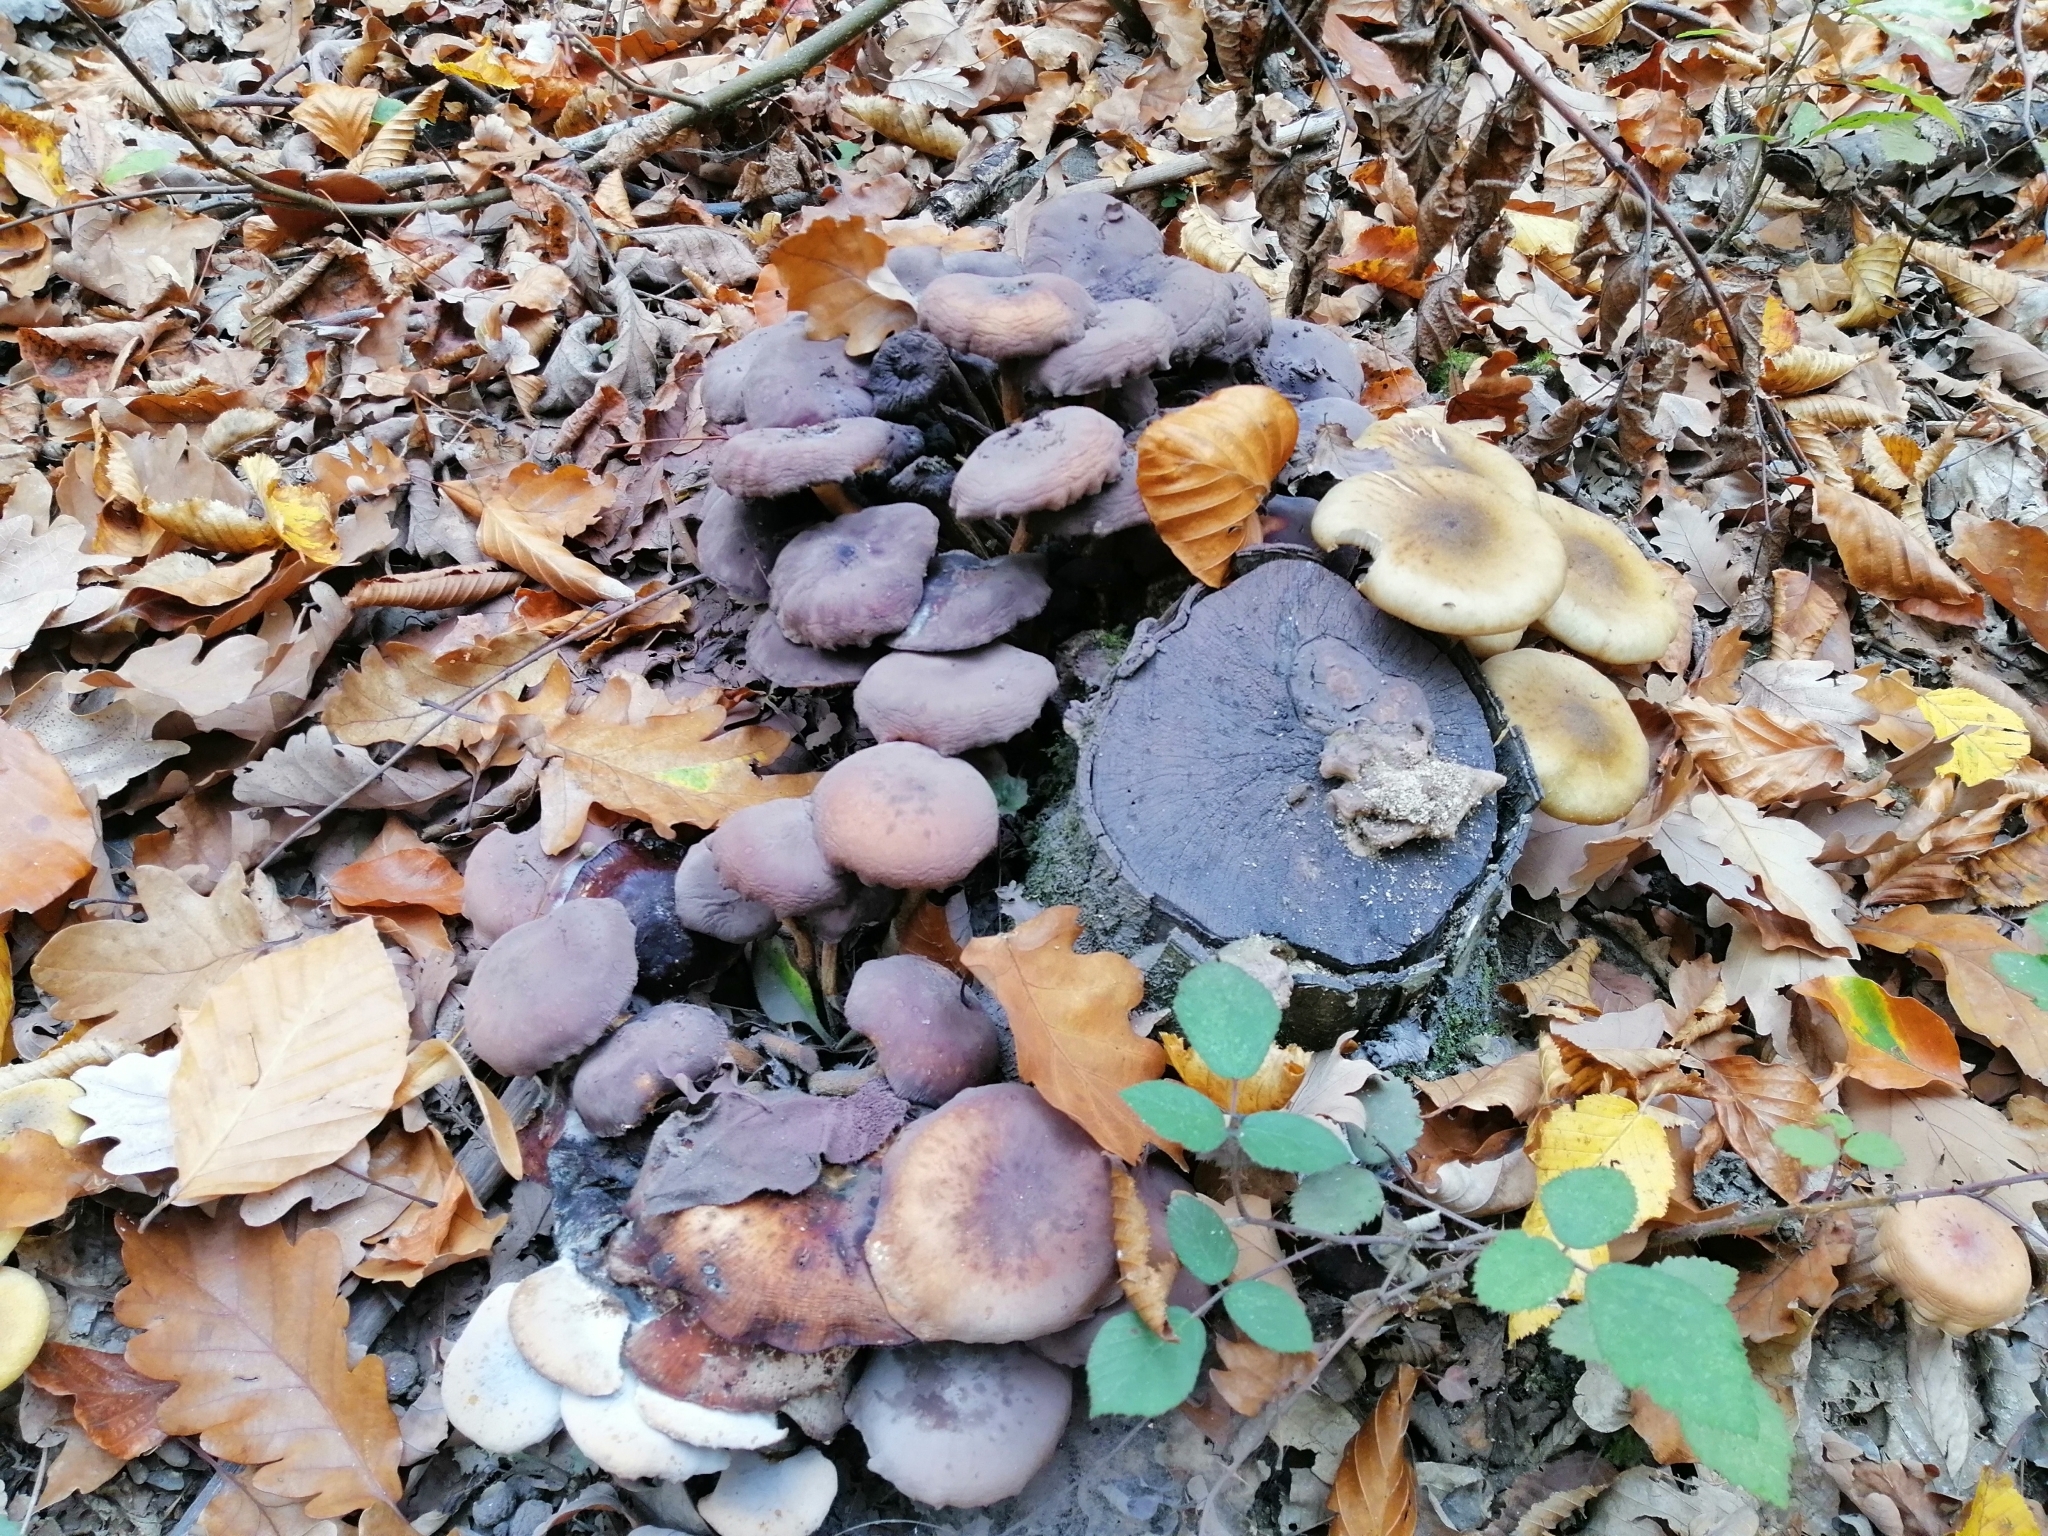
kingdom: Fungi
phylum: Basidiomycota
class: Agaricomycetes
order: Agaricales
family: Strophariaceae
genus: Hypholoma
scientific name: Hypholoma fasciculare
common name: Sulphur tuft
